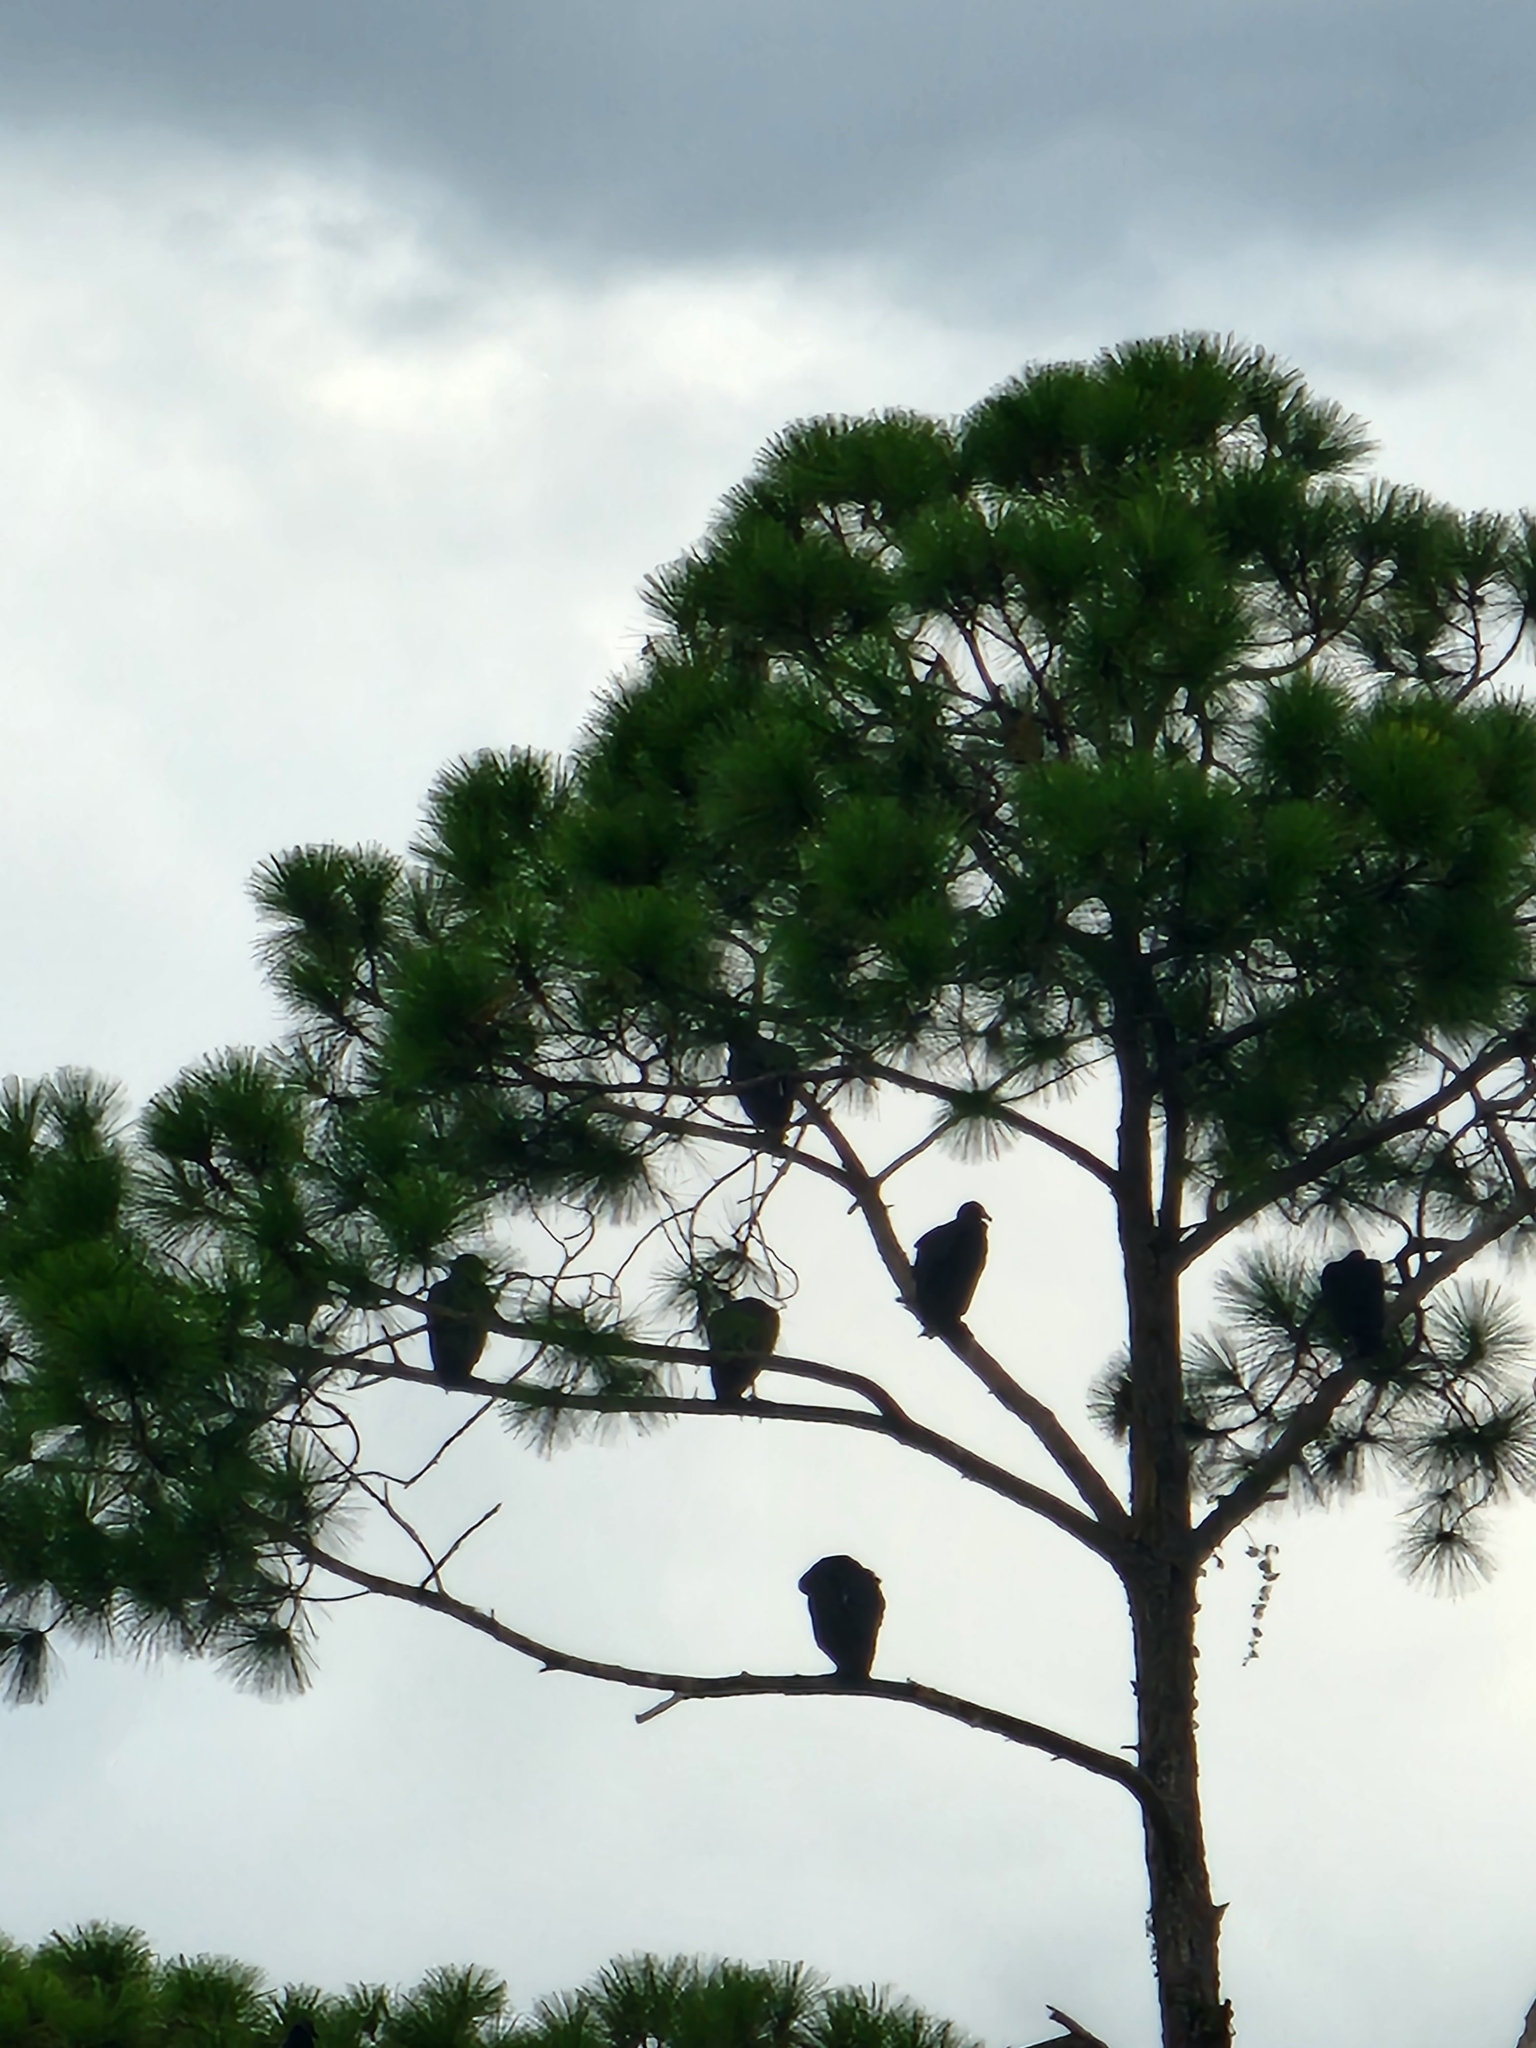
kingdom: Animalia
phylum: Chordata
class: Aves
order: Accipitriformes
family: Cathartidae
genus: Coragyps
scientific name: Coragyps atratus
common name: Black vulture
